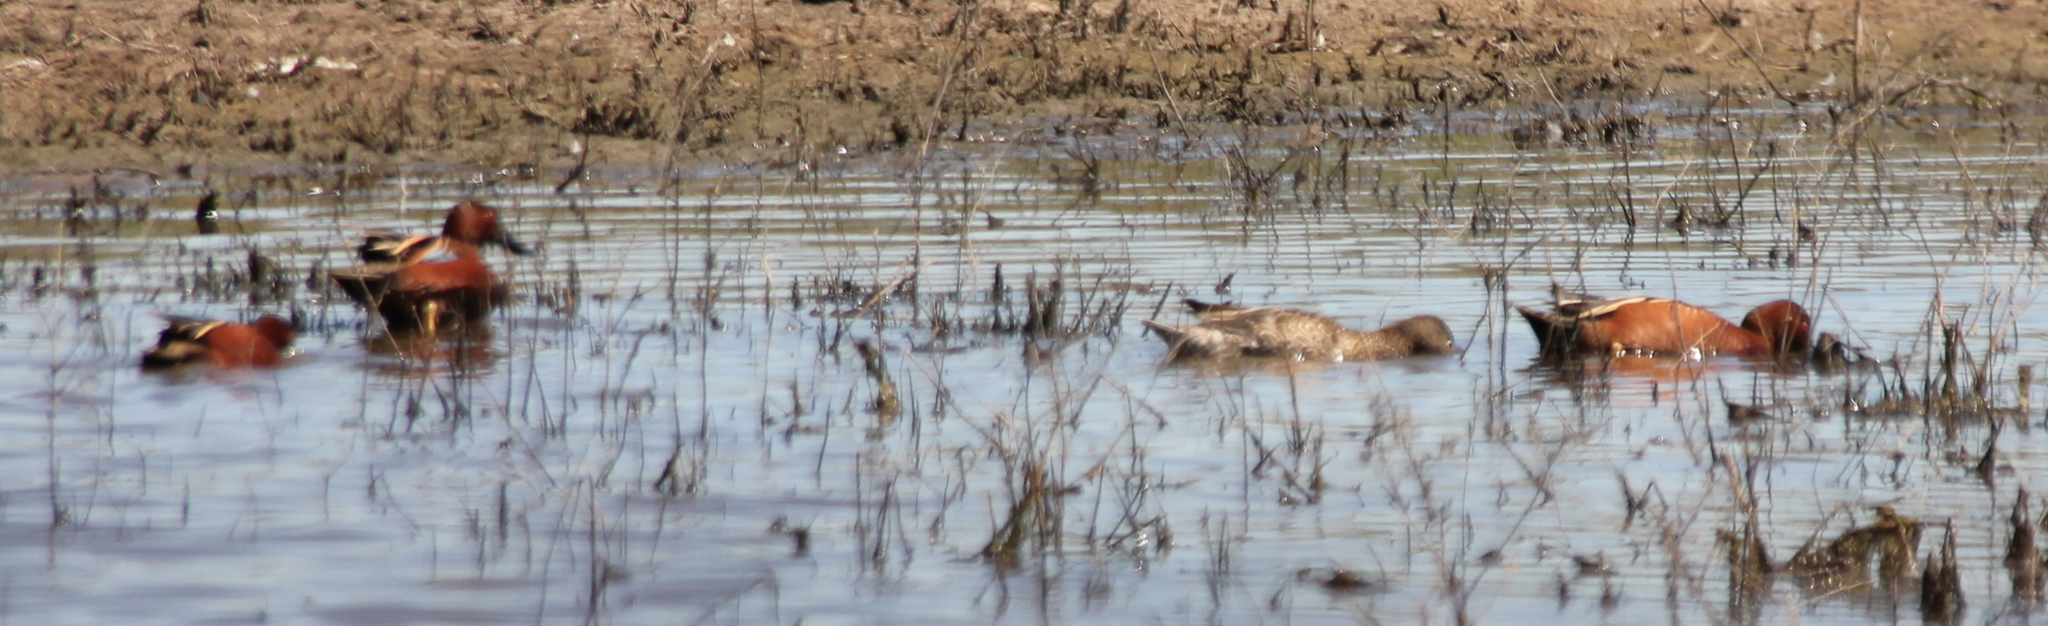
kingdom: Animalia
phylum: Chordata
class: Aves
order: Anseriformes
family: Anatidae
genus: Spatula
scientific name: Spatula cyanoptera
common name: Cinnamon teal
